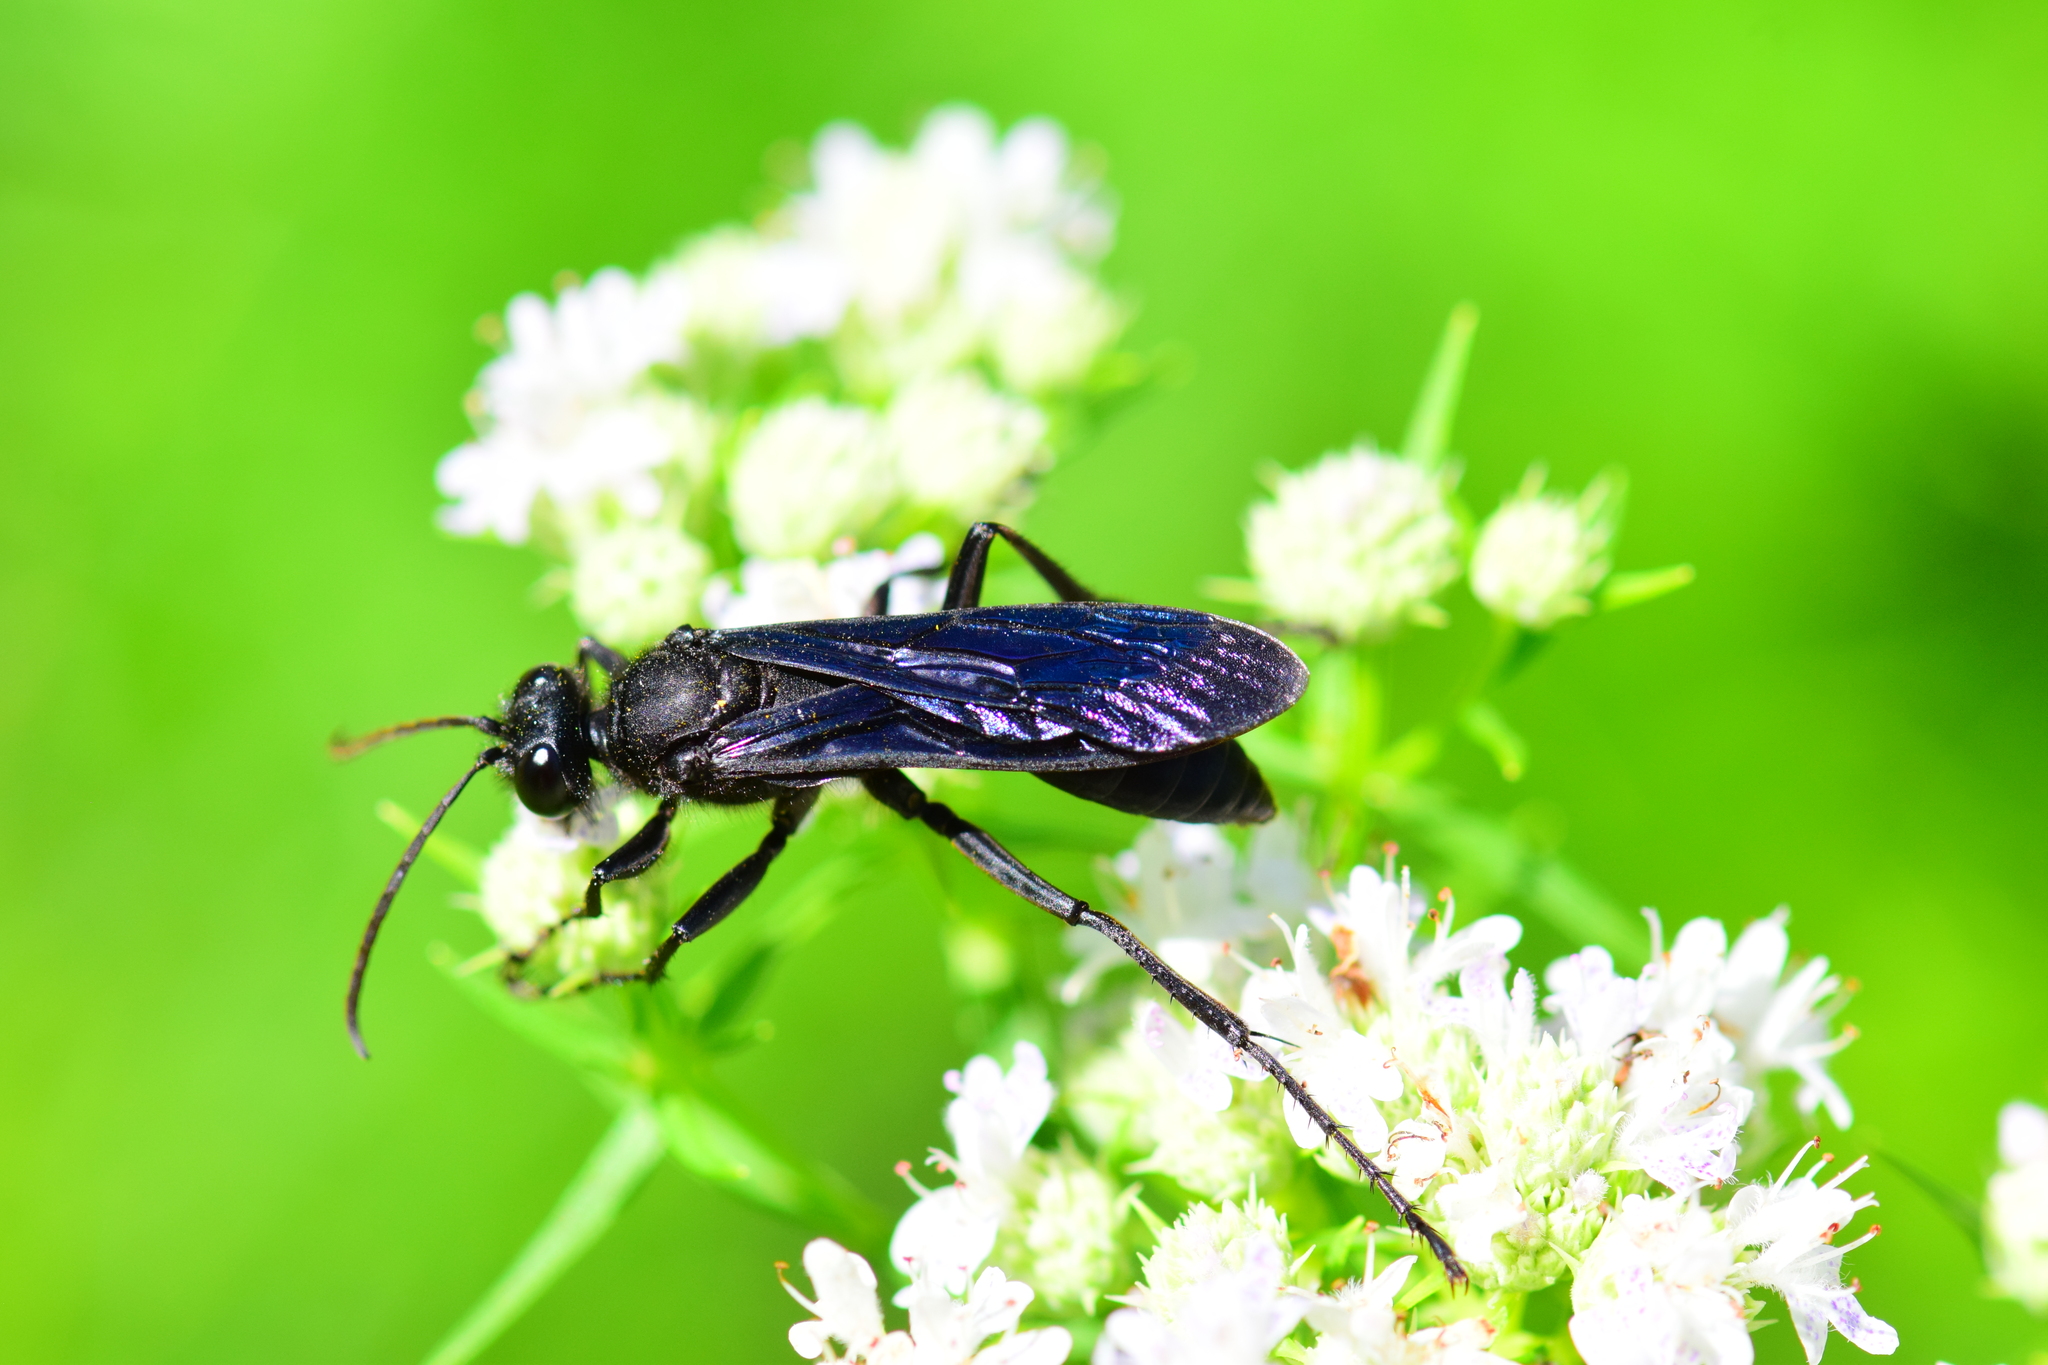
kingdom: Animalia
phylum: Arthropoda
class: Insecta
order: Hymenoptera
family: Sphecidae
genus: Sphex
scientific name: Sphex pensylvanicus
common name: Great black digger wasp
